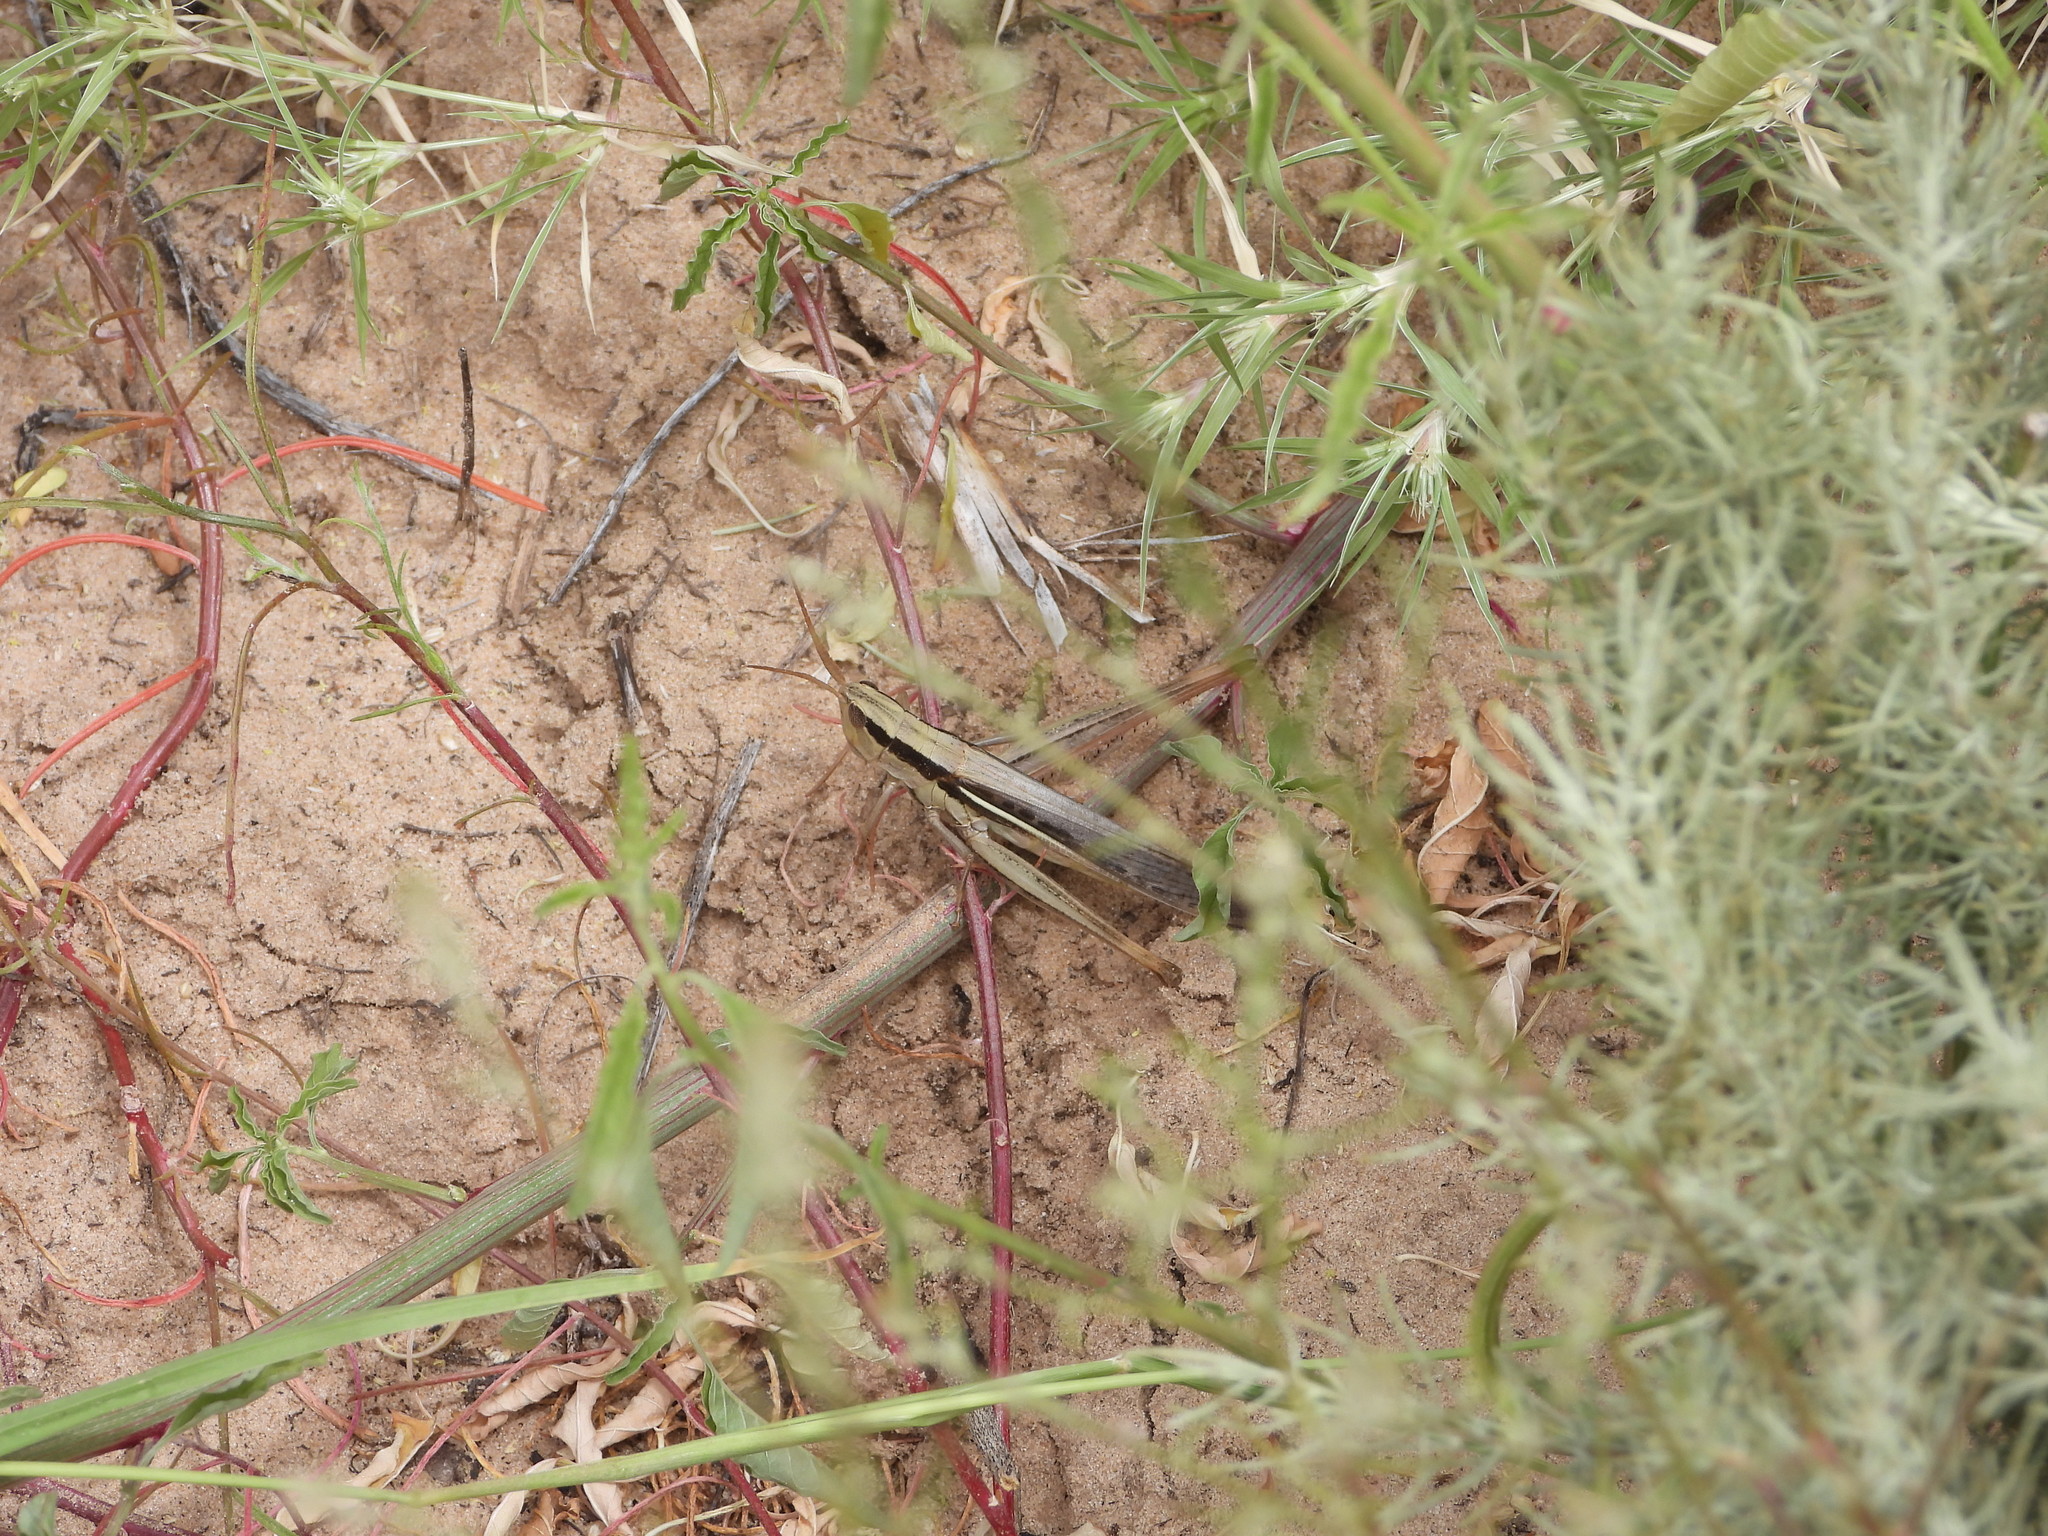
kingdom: Animalia
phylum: Arthropoda
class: Insecta
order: Orthoptera
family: Acrididae
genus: Mermiria
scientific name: Mermiria bivittata
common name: Two-striped mermiria grasshopper
